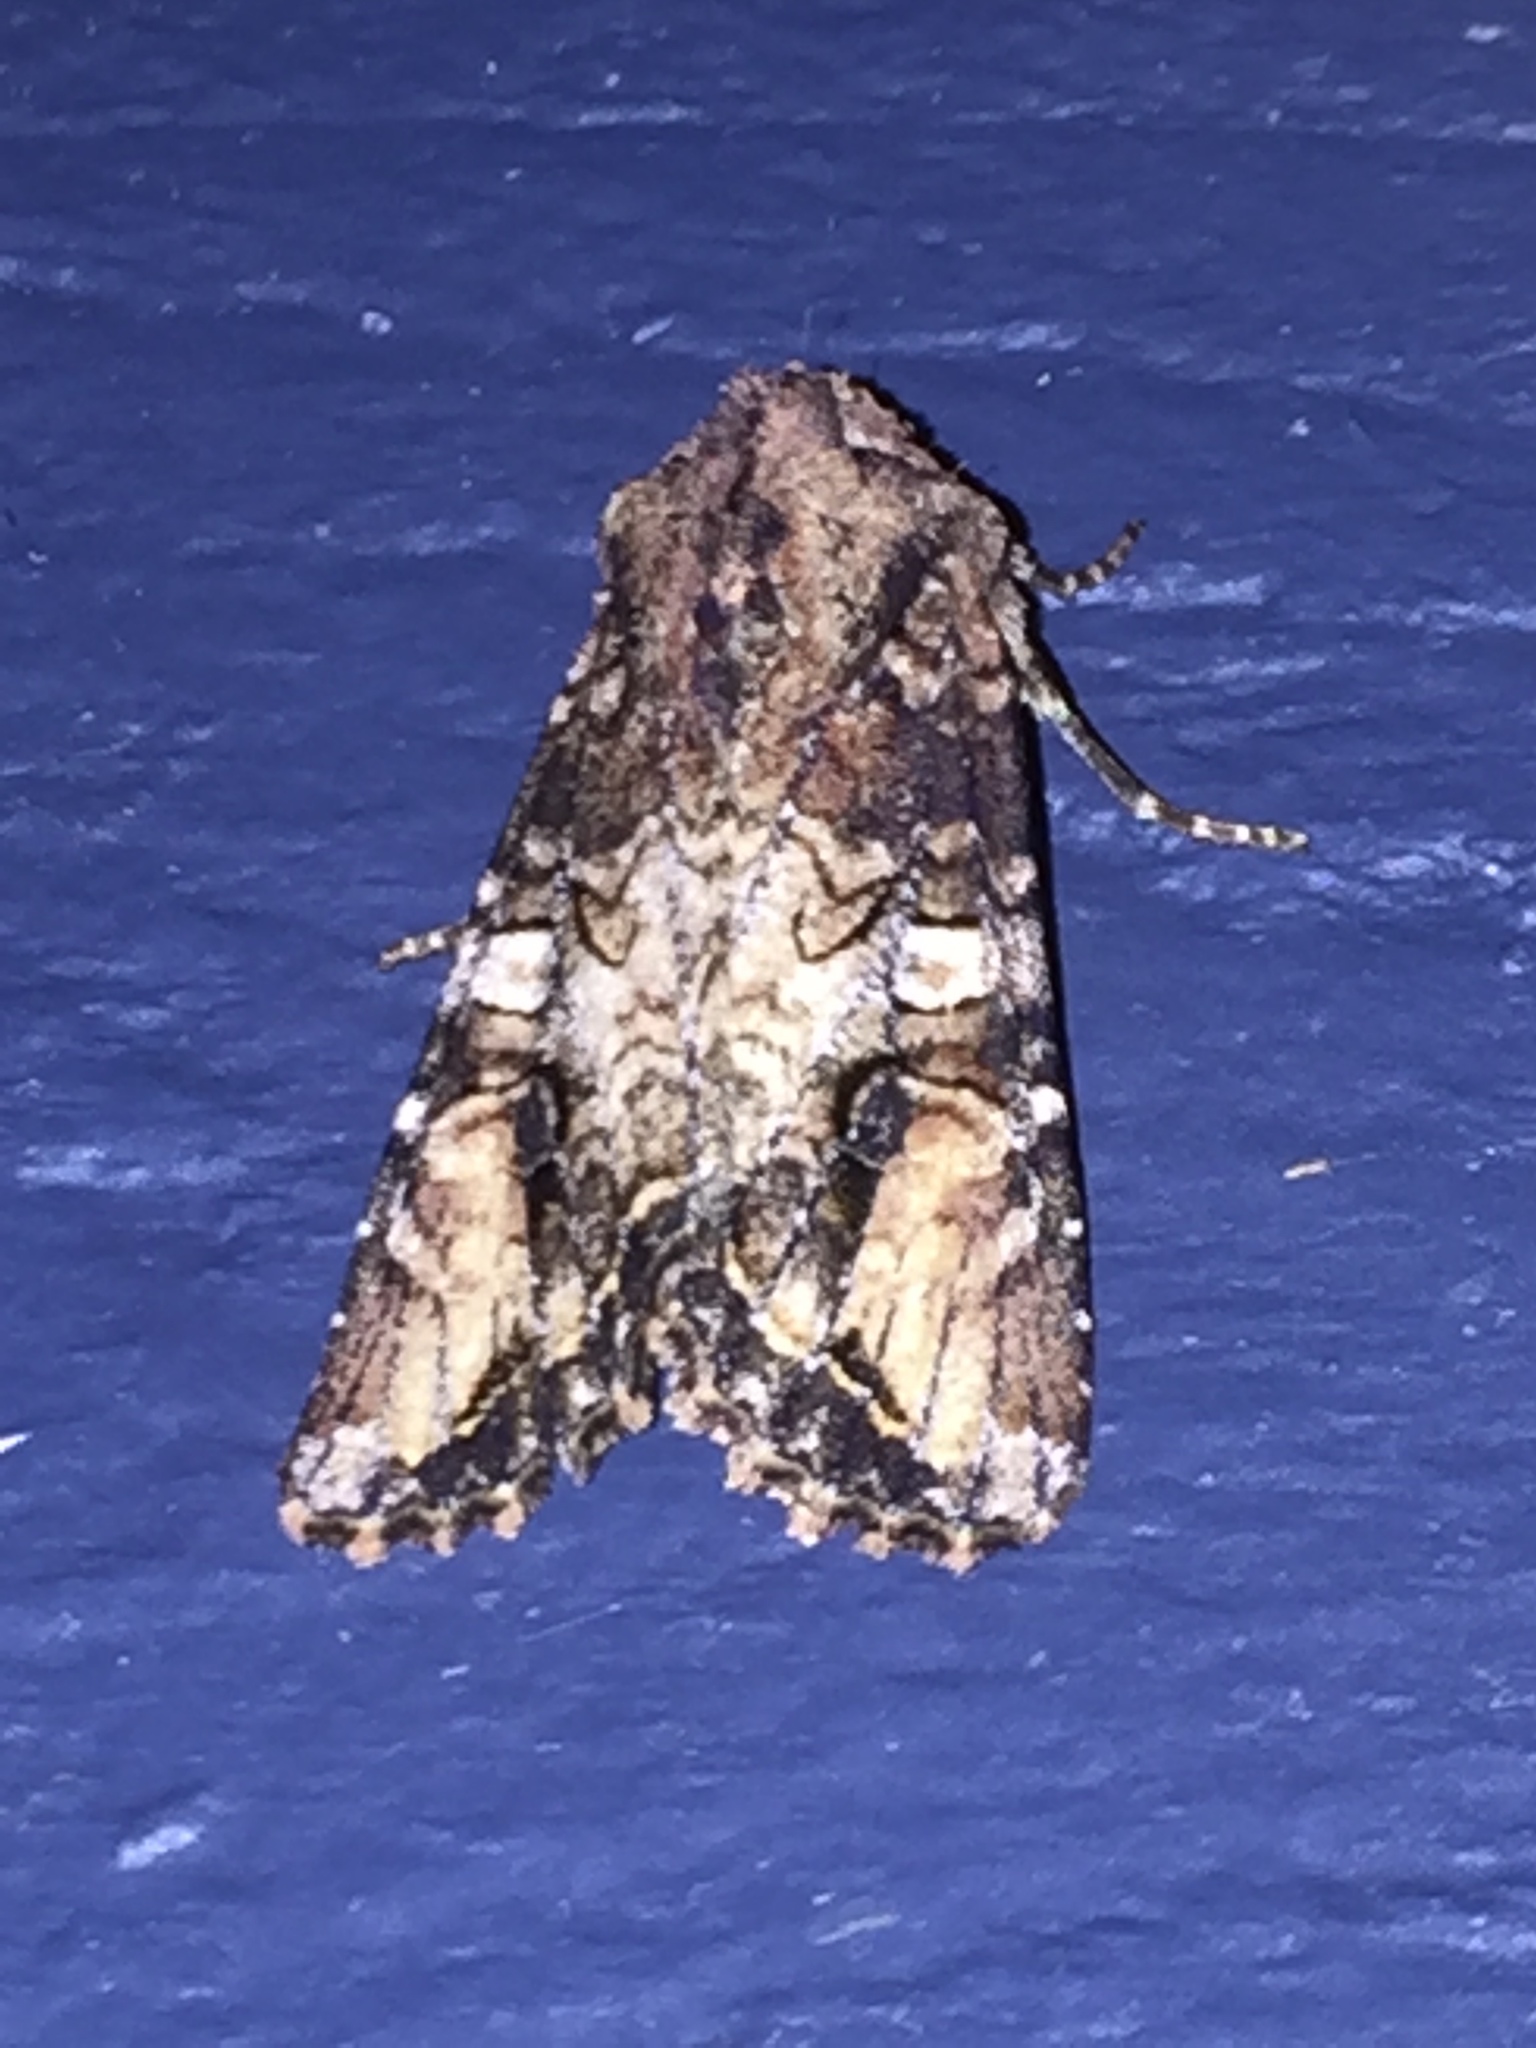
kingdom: Animalia
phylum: Arthropoda
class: Insecta
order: Lepidoptera
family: Noctuidae
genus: Egira
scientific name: Egira perlubens
